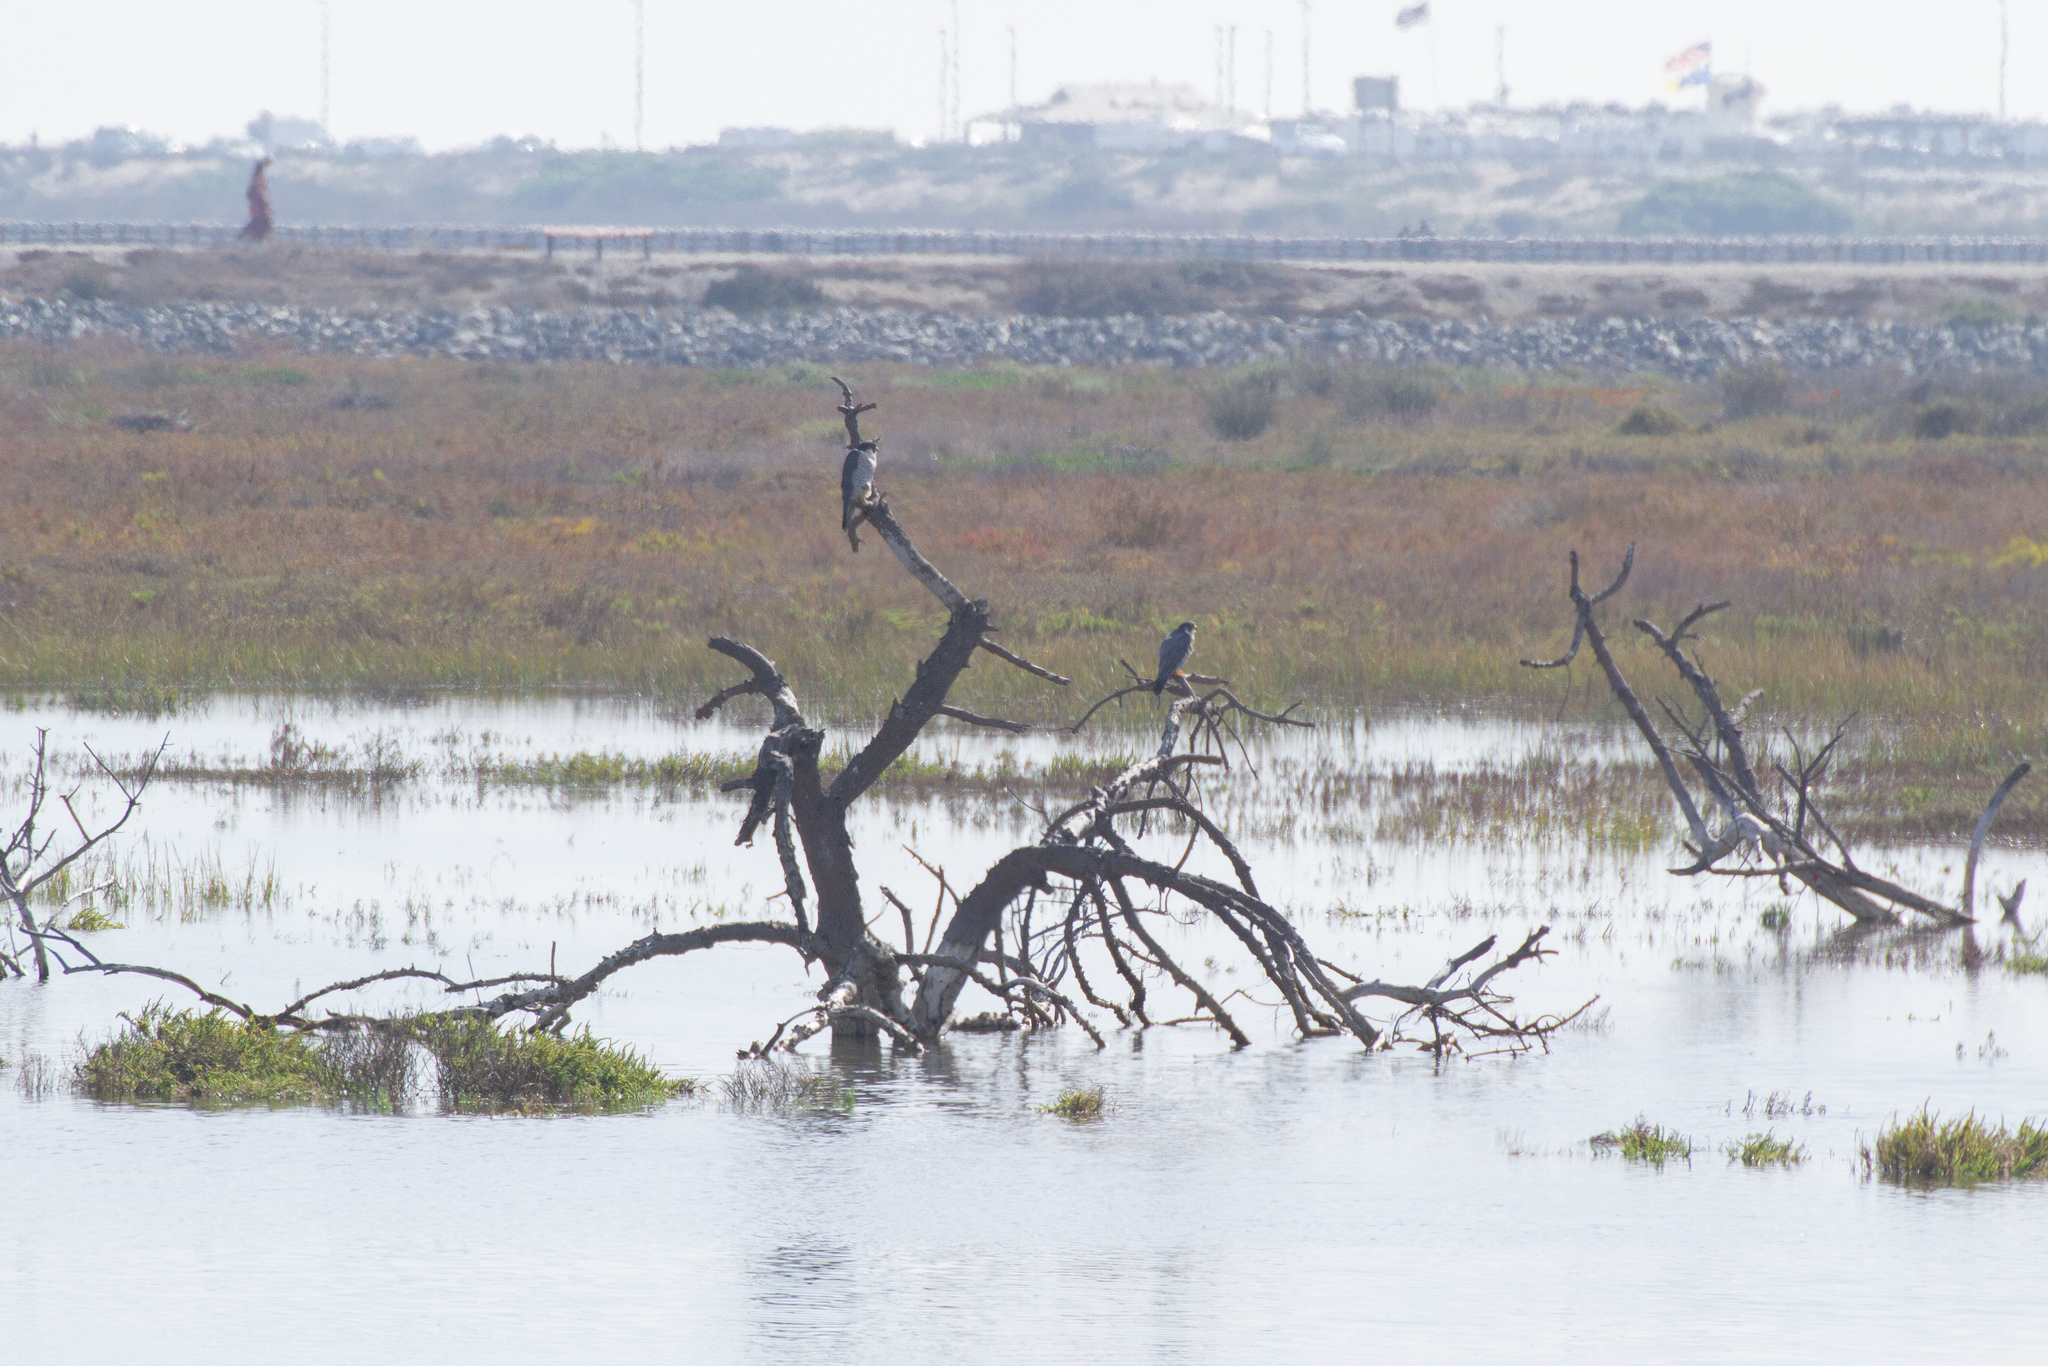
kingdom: Animalia
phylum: Chordata
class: Aves
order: Falconiformes
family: Falconidae
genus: Falco
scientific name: Falco peregrinus
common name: Peregrine falcon
